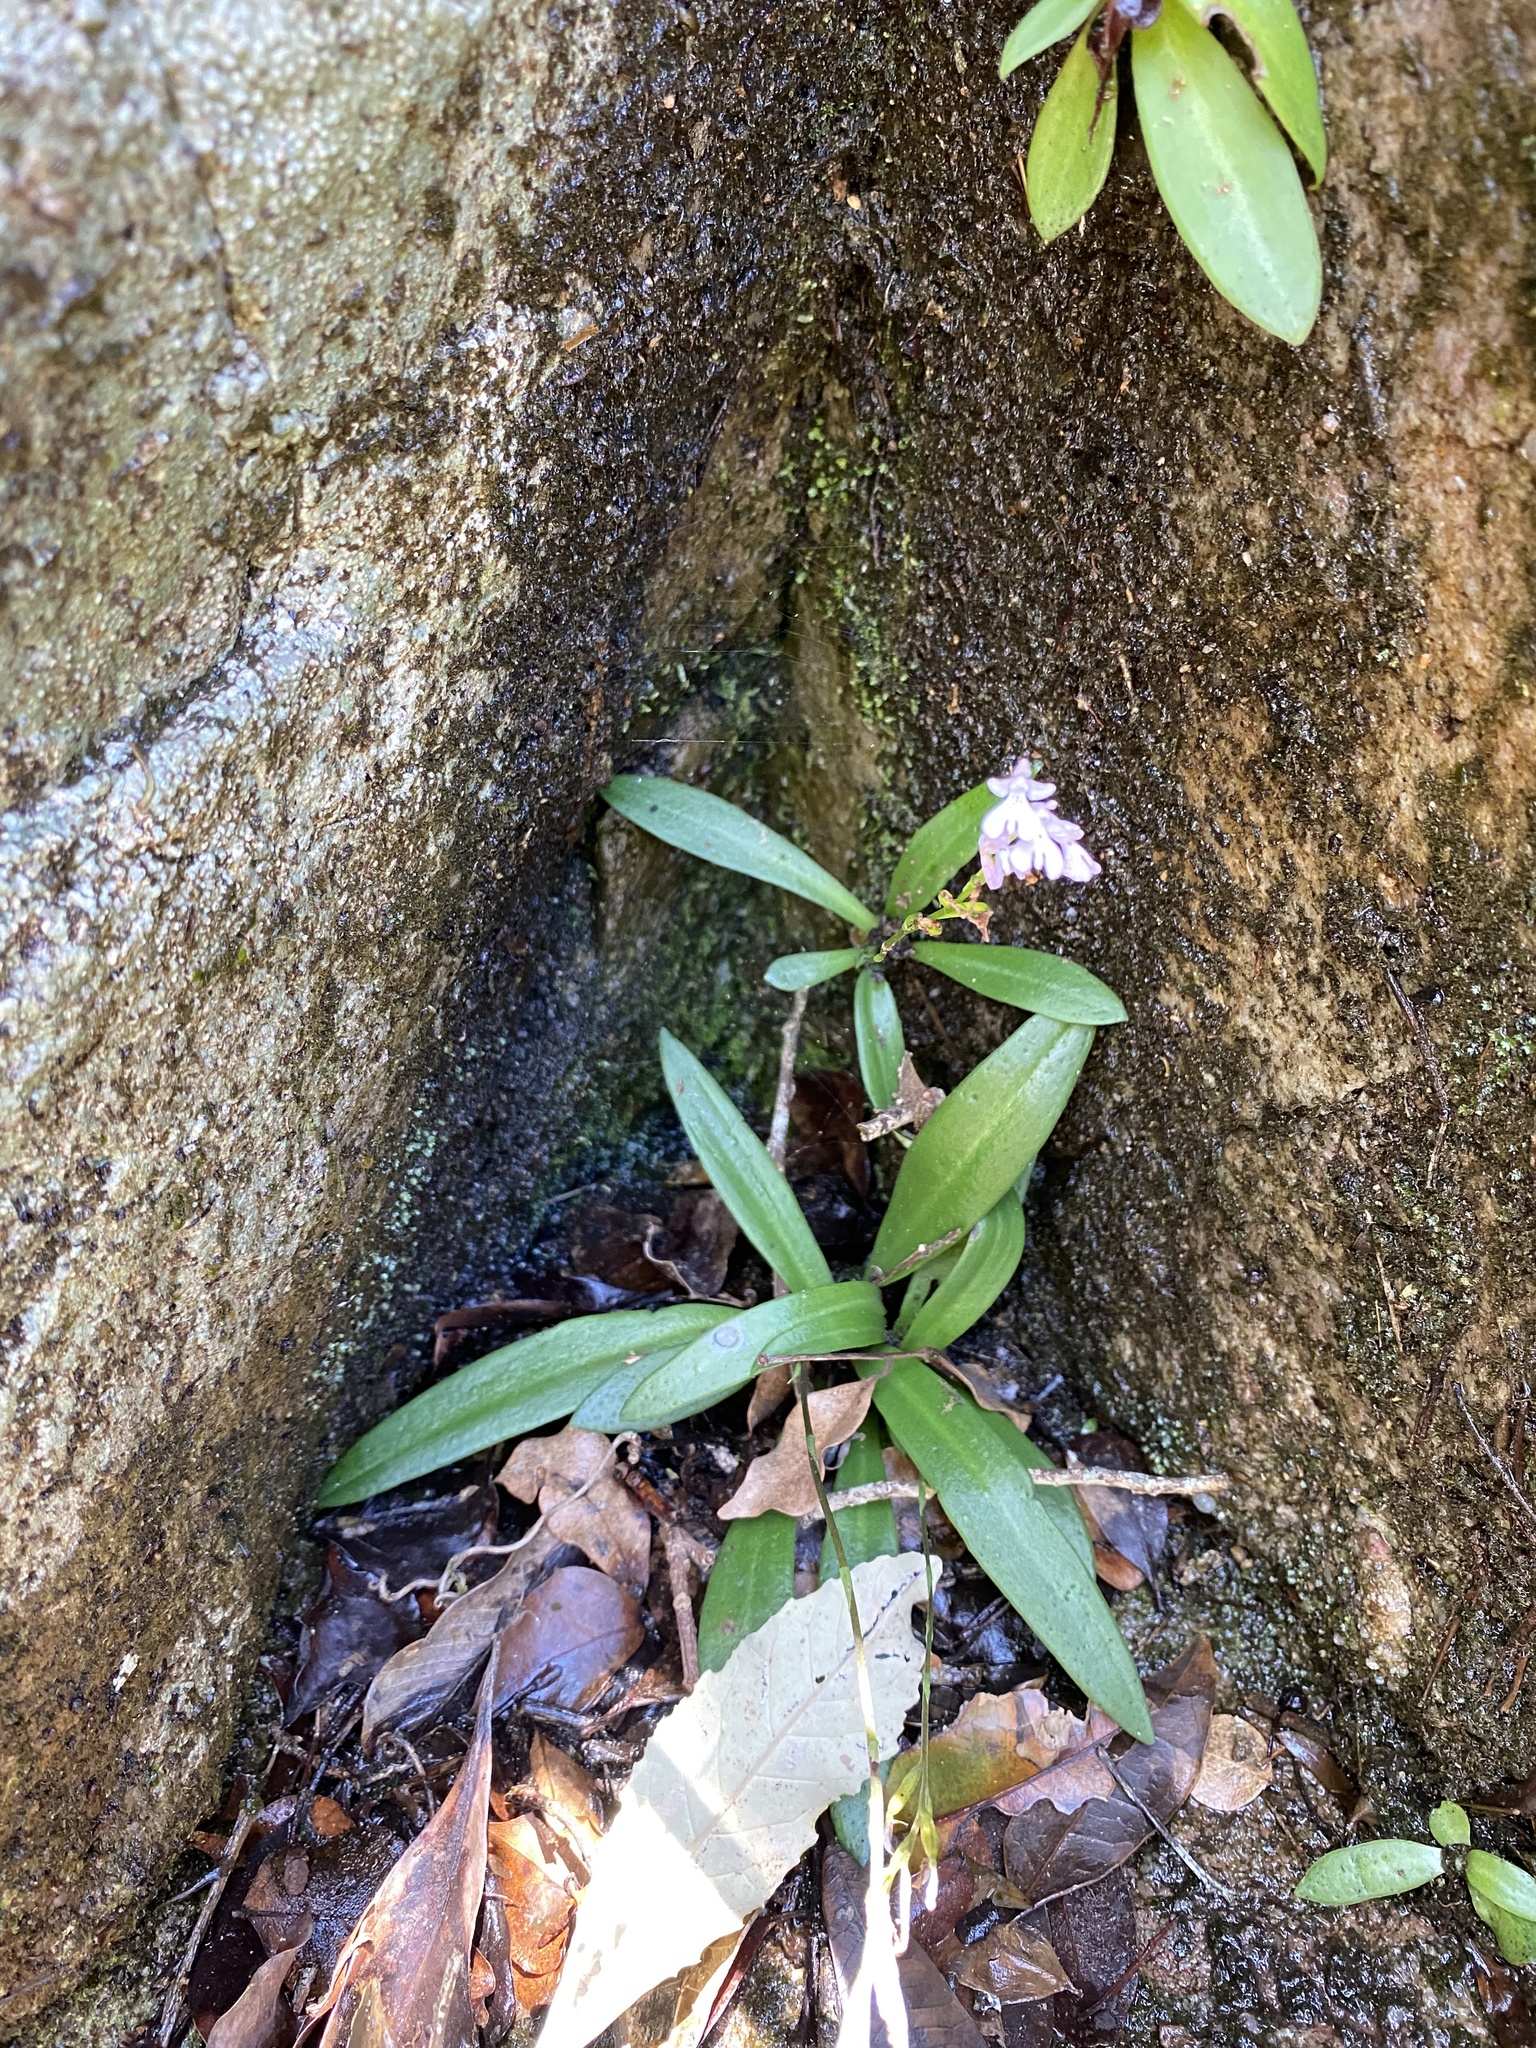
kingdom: Plantae
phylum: Tracheophyta
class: Liliopsida
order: Asparagales
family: Orchidaceae
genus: Stenoglottis
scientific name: Stenoglottis macloughlinii
